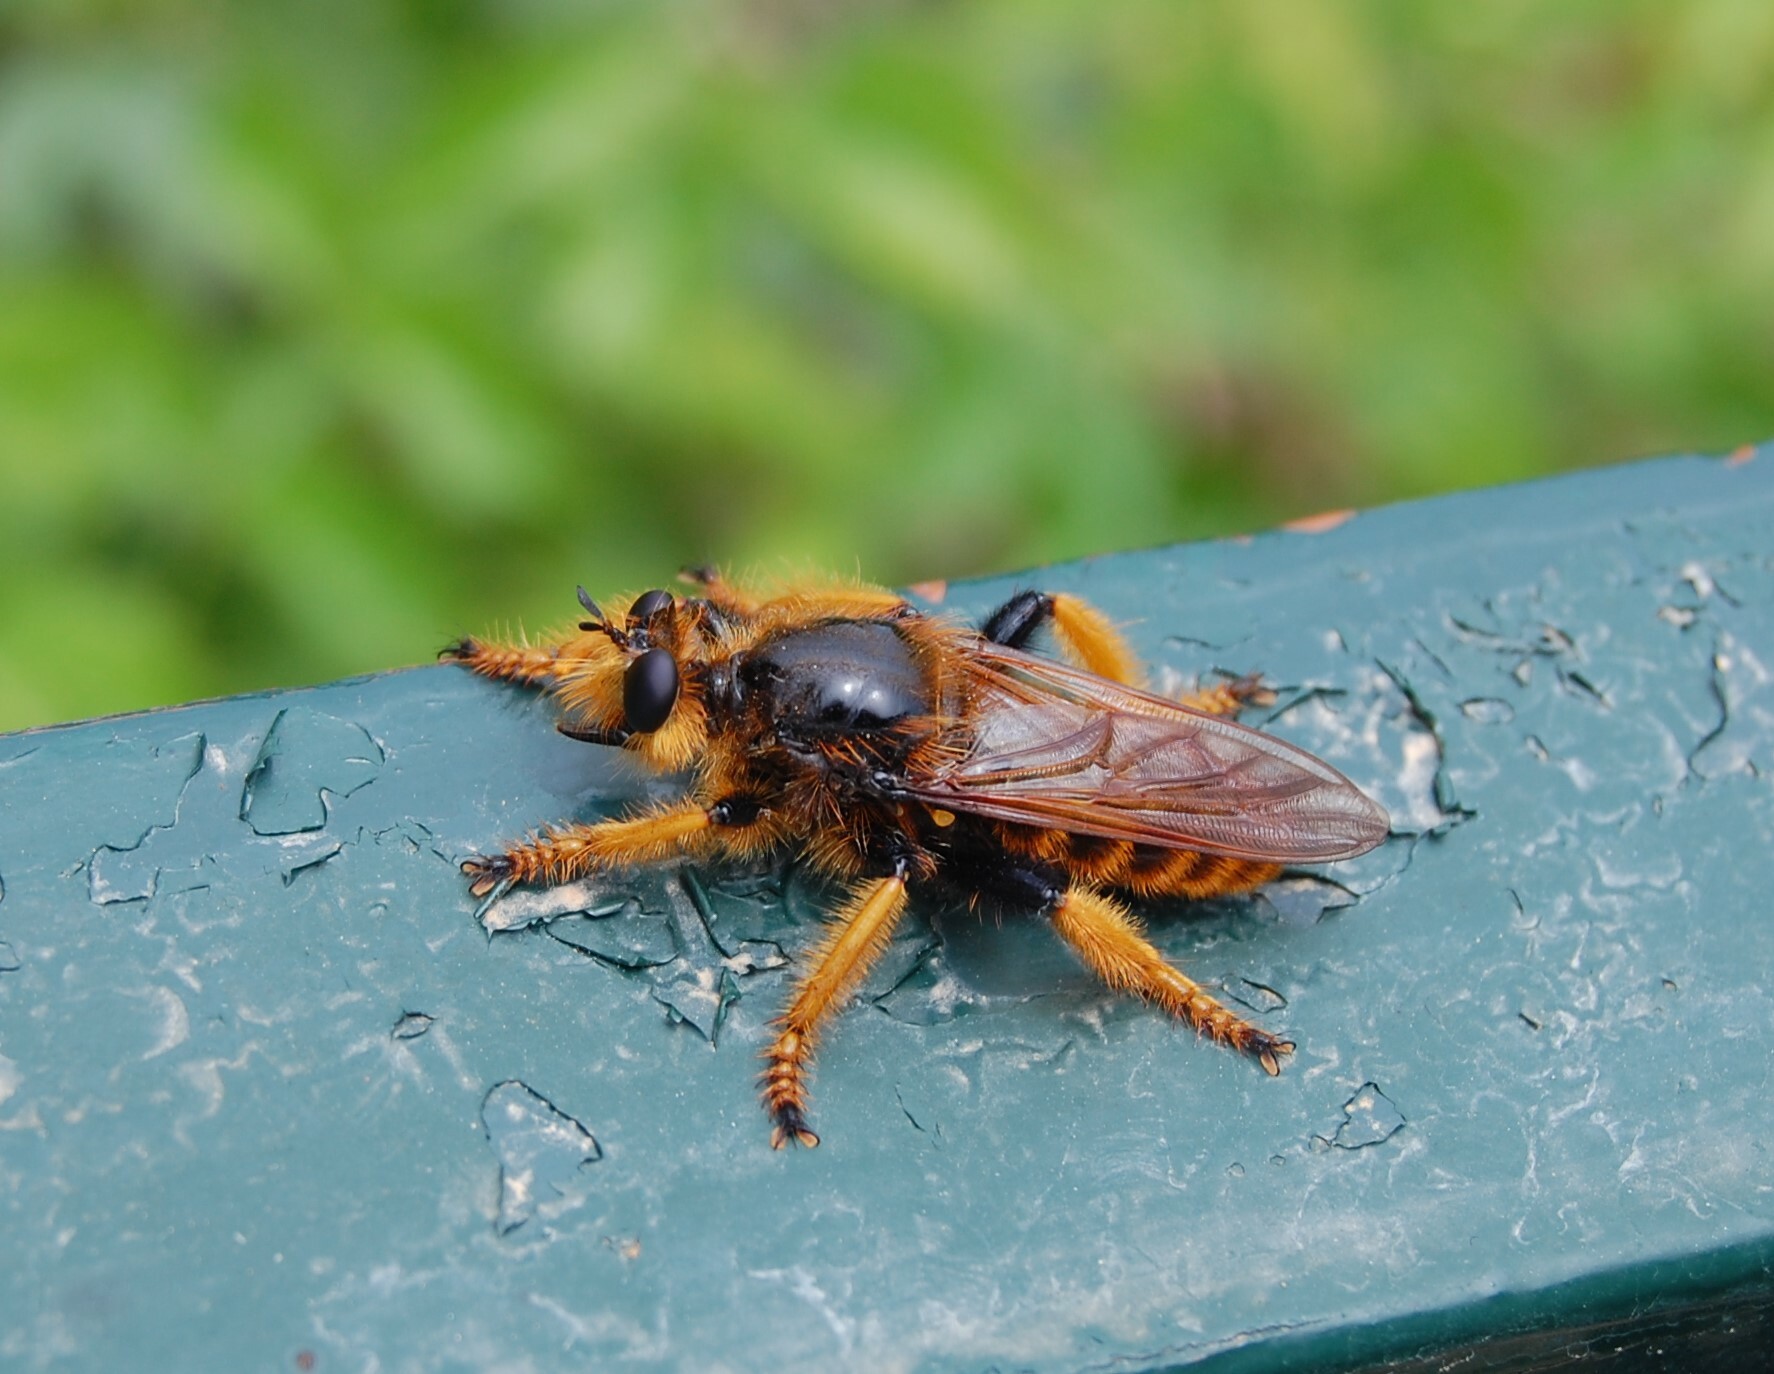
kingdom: Animalia
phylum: Arthropoda
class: Insecta
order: Diptera
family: Asilidae
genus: Pogonosoma
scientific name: Pogonosoma maroccanum
